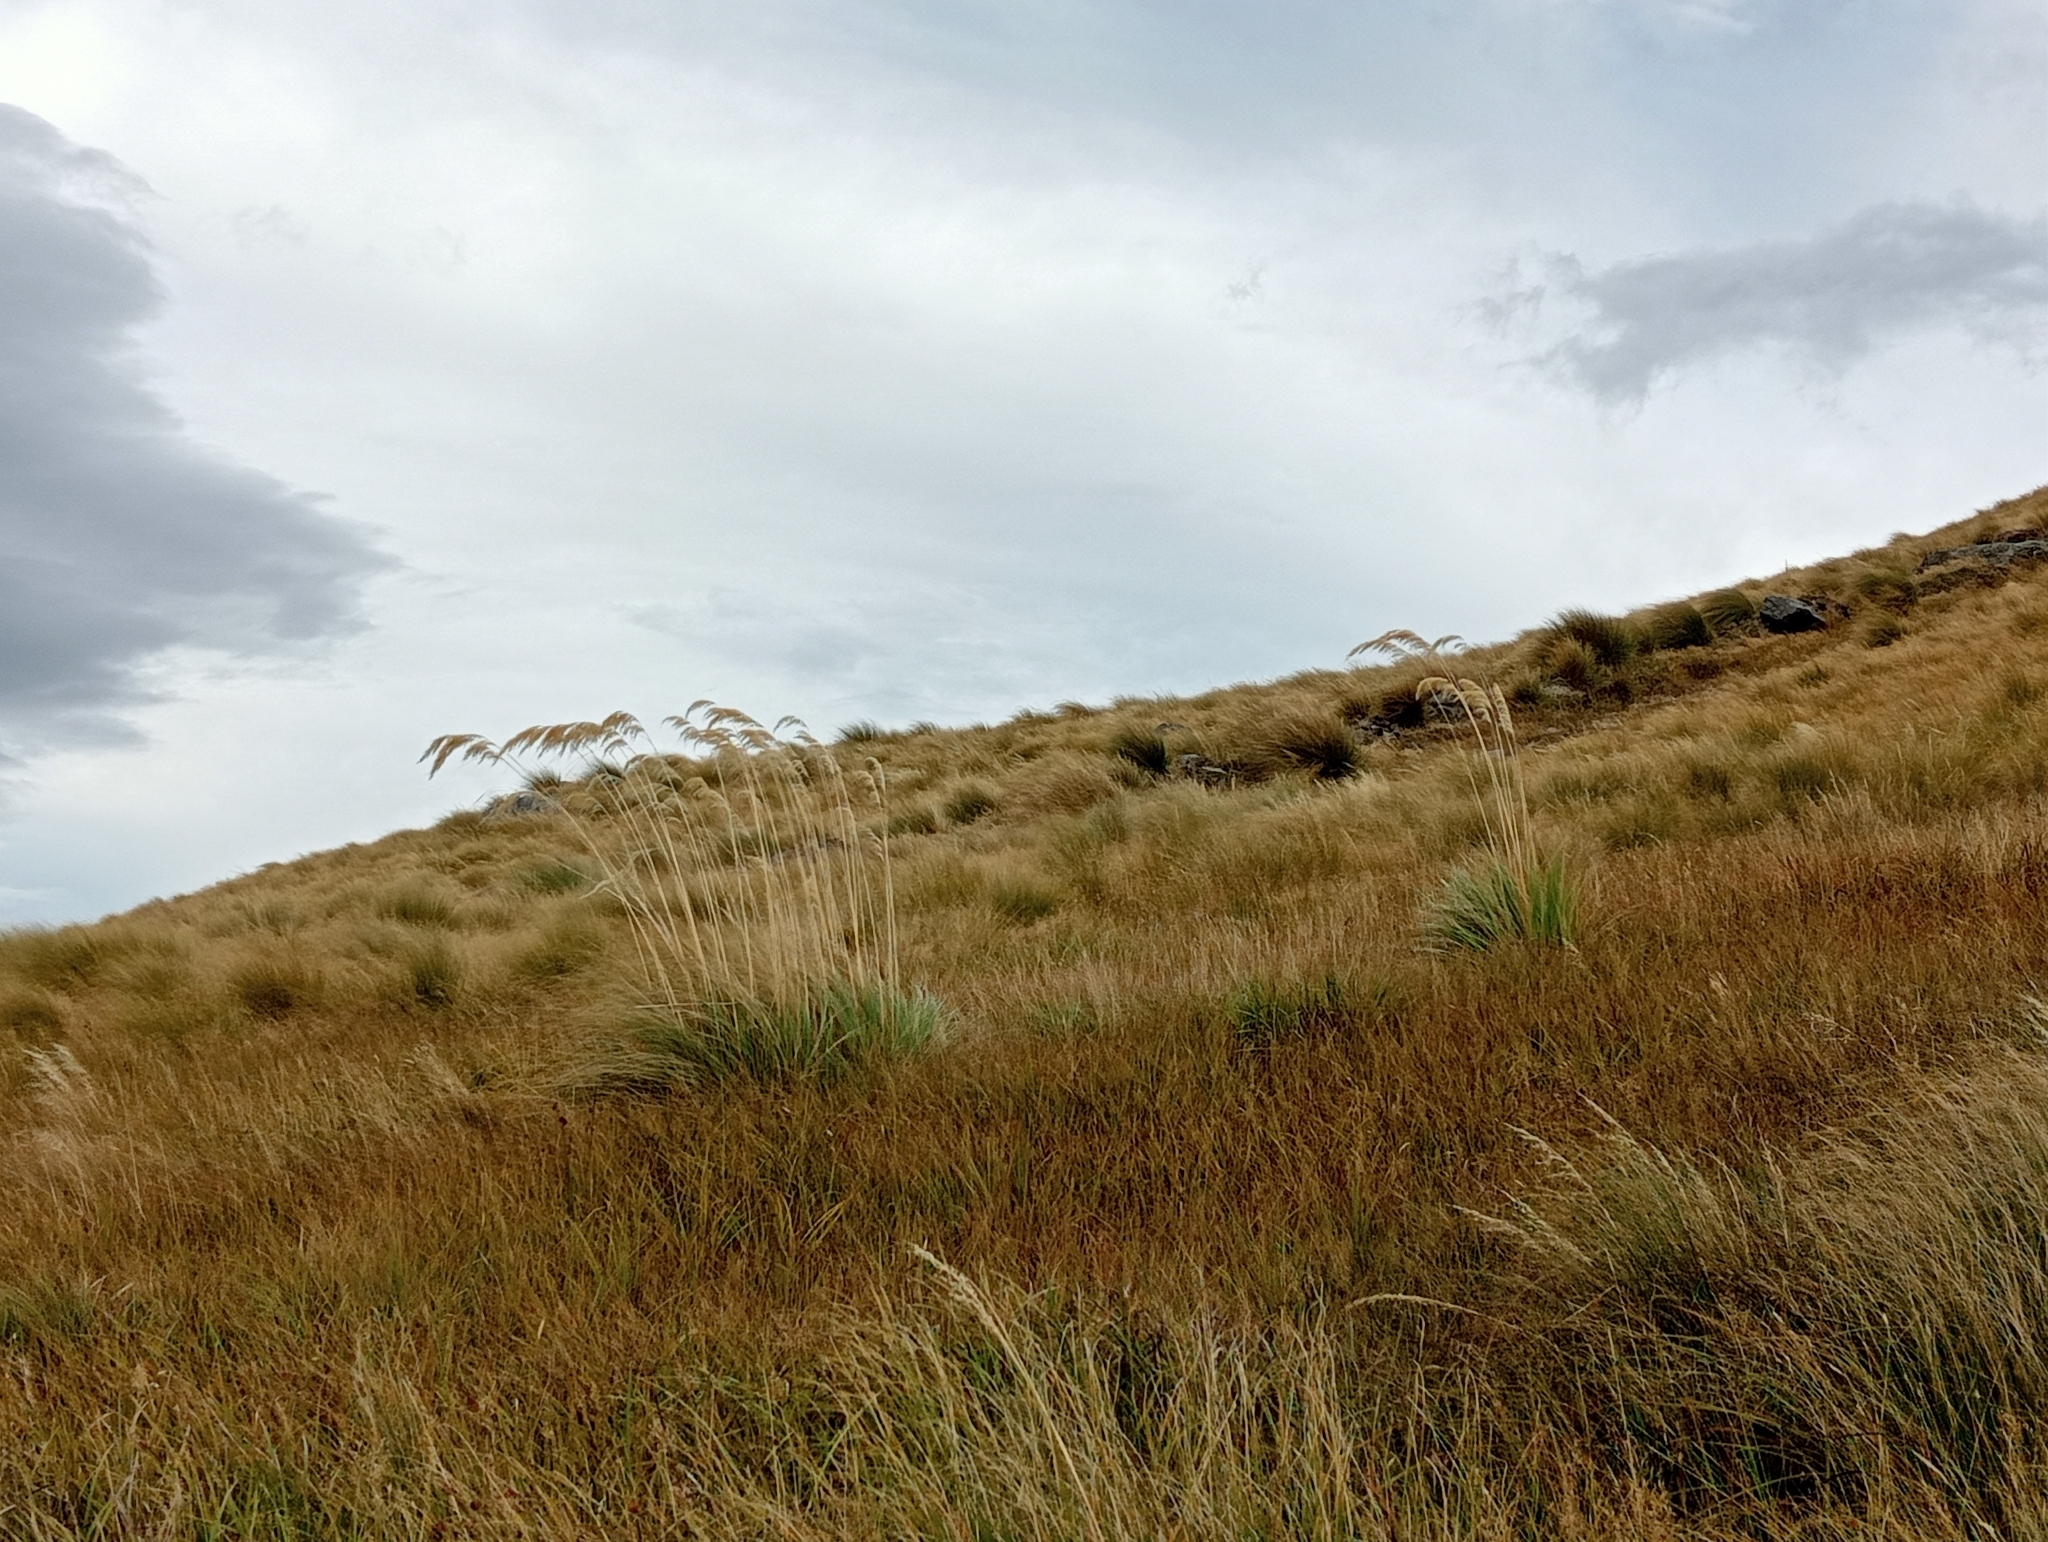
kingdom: Plantae
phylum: Tracheophyta
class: Liliopsida
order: Poales
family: Poaceae
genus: Austroderia
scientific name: Austroderia richardii
